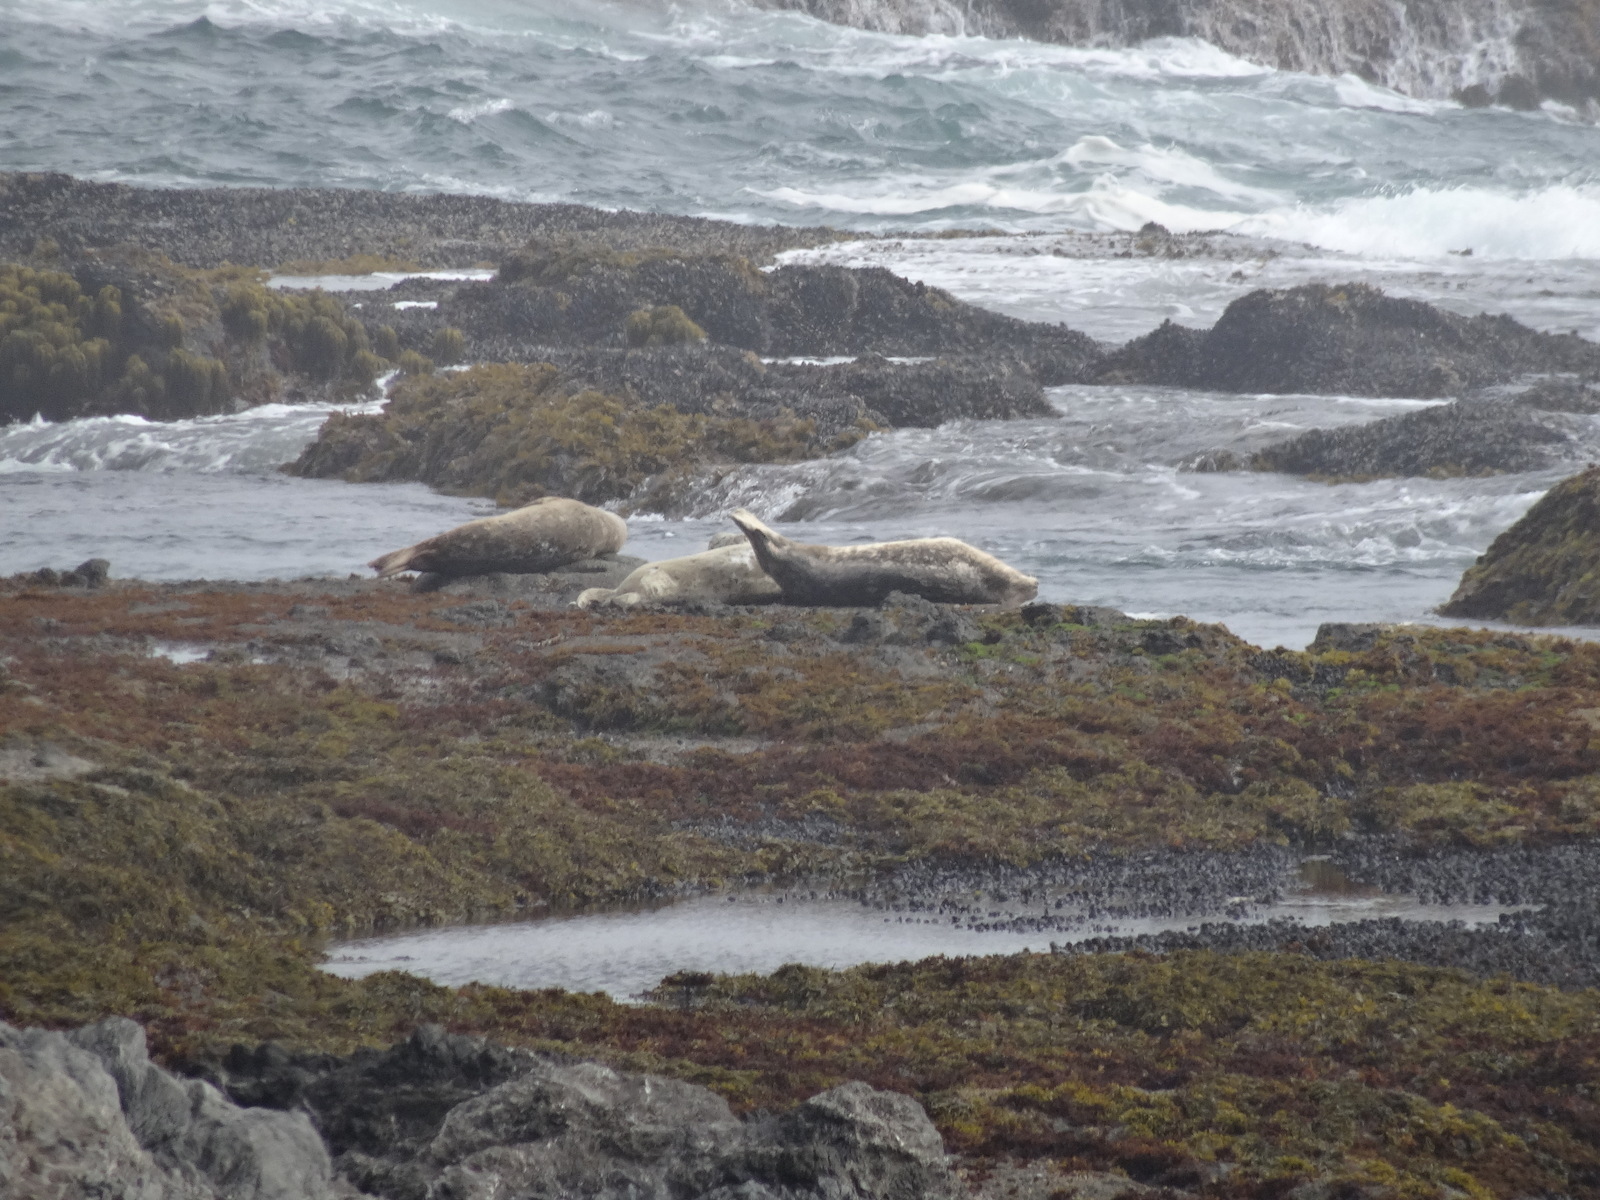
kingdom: Animalia
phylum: Chordata
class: Mammalia
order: Carnivora
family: Phocidae
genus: Phoca
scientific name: Phoca vitulina
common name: Harbor seal
